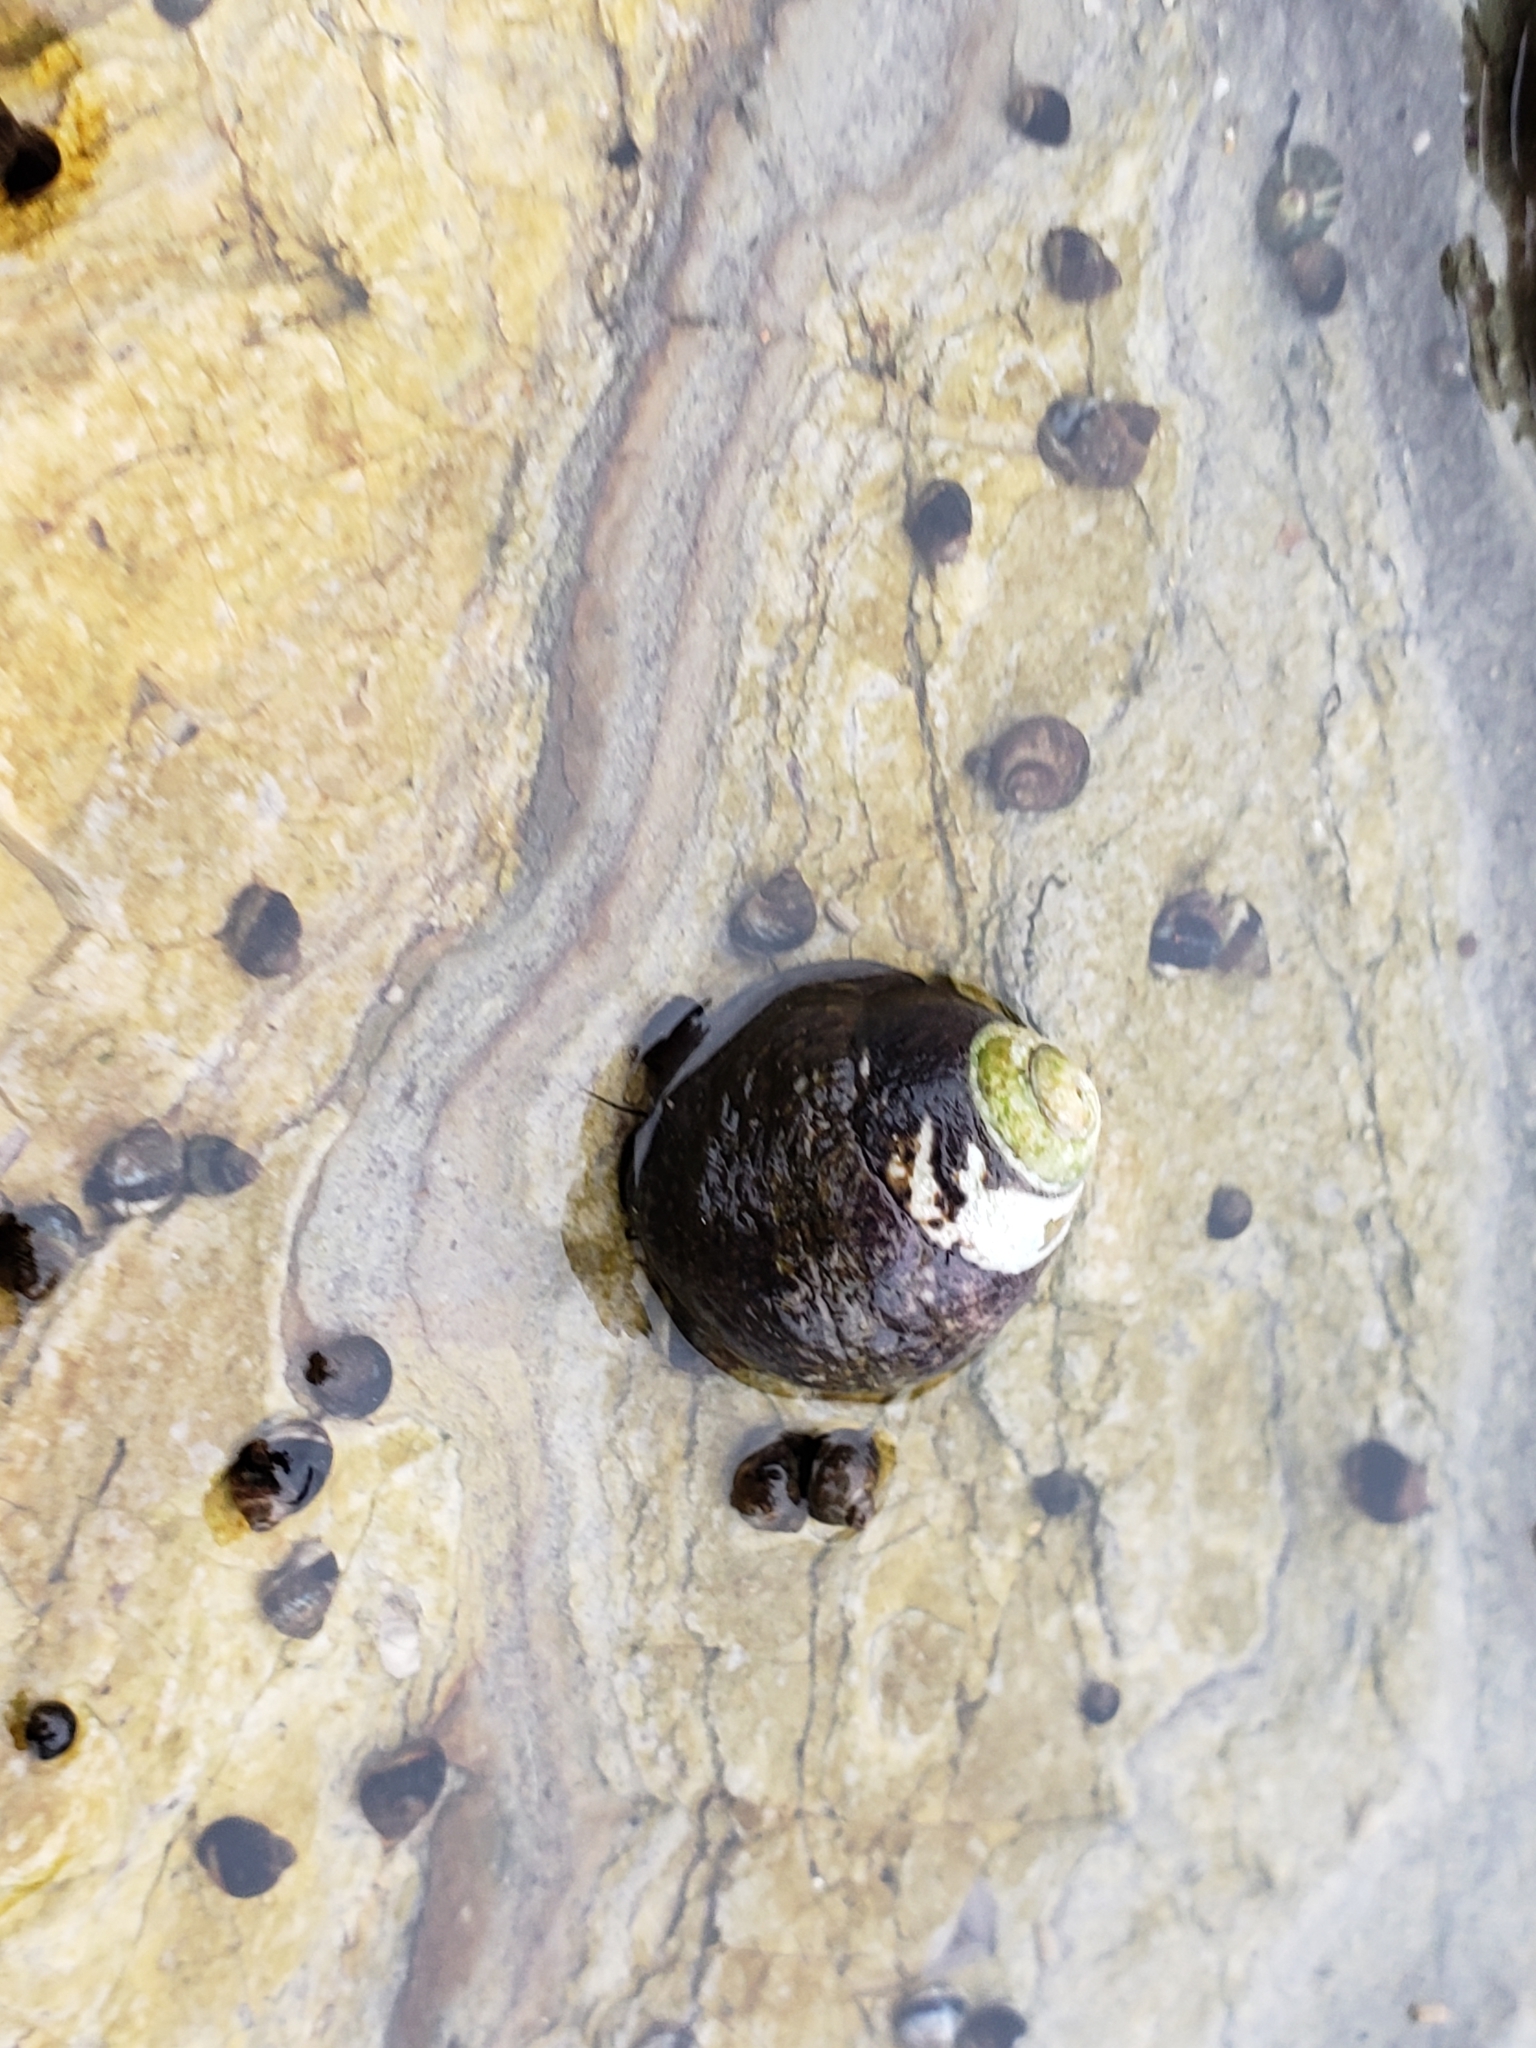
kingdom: Animalia
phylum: Mollusca
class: Gastropoda
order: Trochida
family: Tegulidae
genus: Tegula
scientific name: Tegula funebralis
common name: Black tegula
